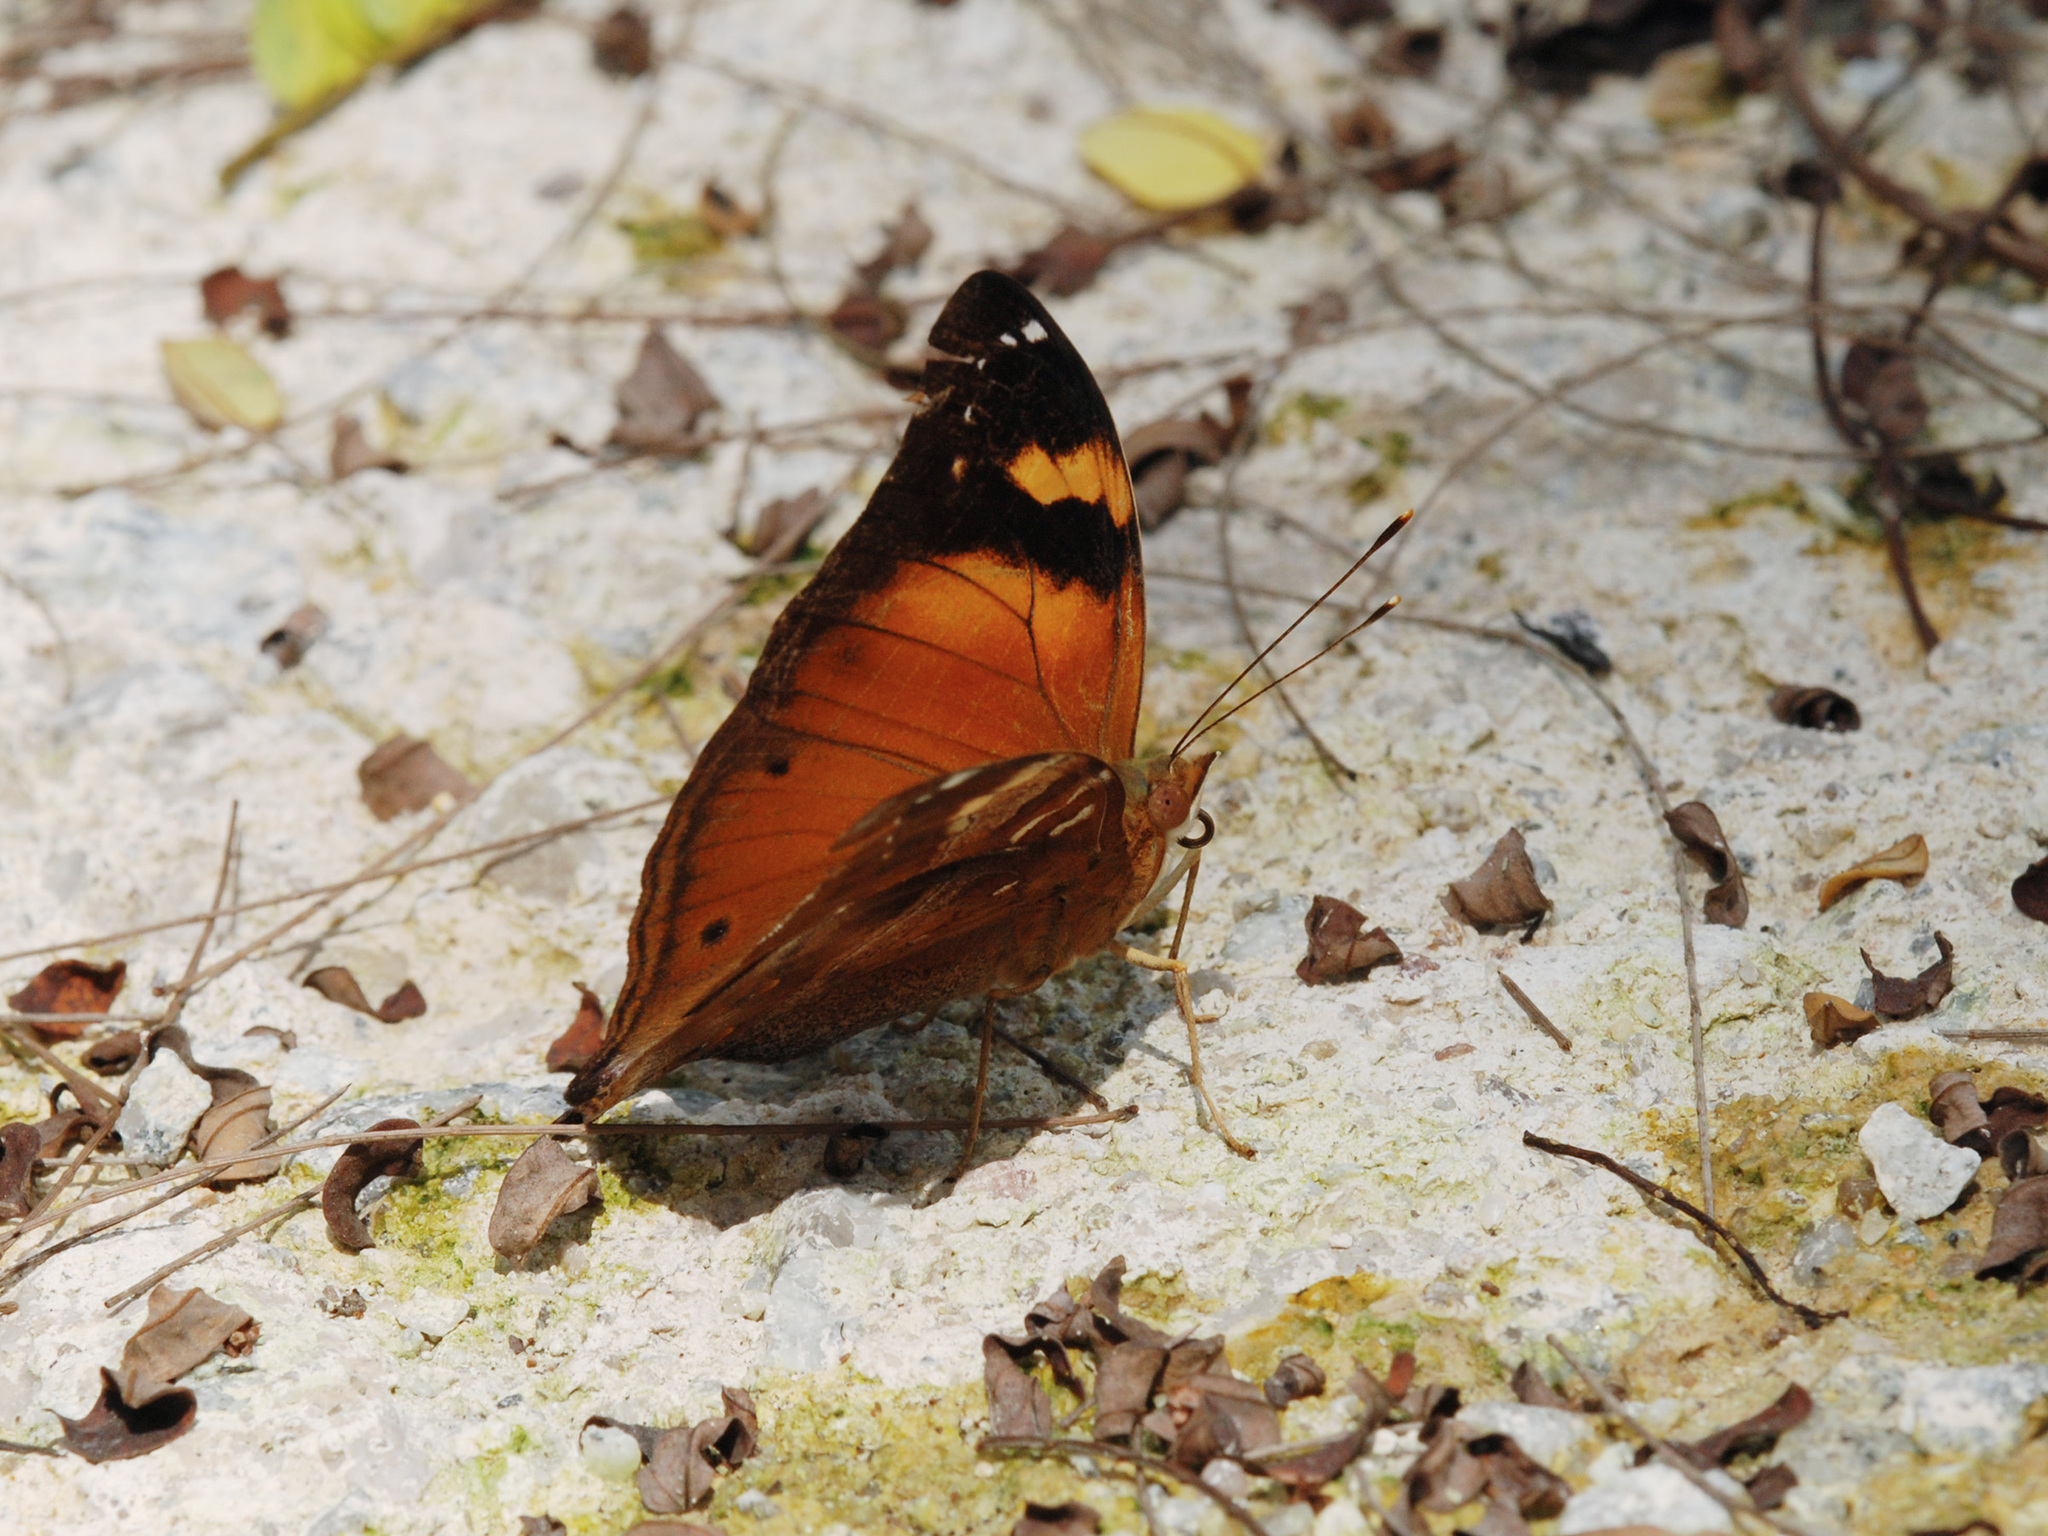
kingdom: Animalia
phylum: Arthropoda
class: Insecta
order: Lepidoptera
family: Nymphalidae
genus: Doleschallia
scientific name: Doleschallia bisaltide
